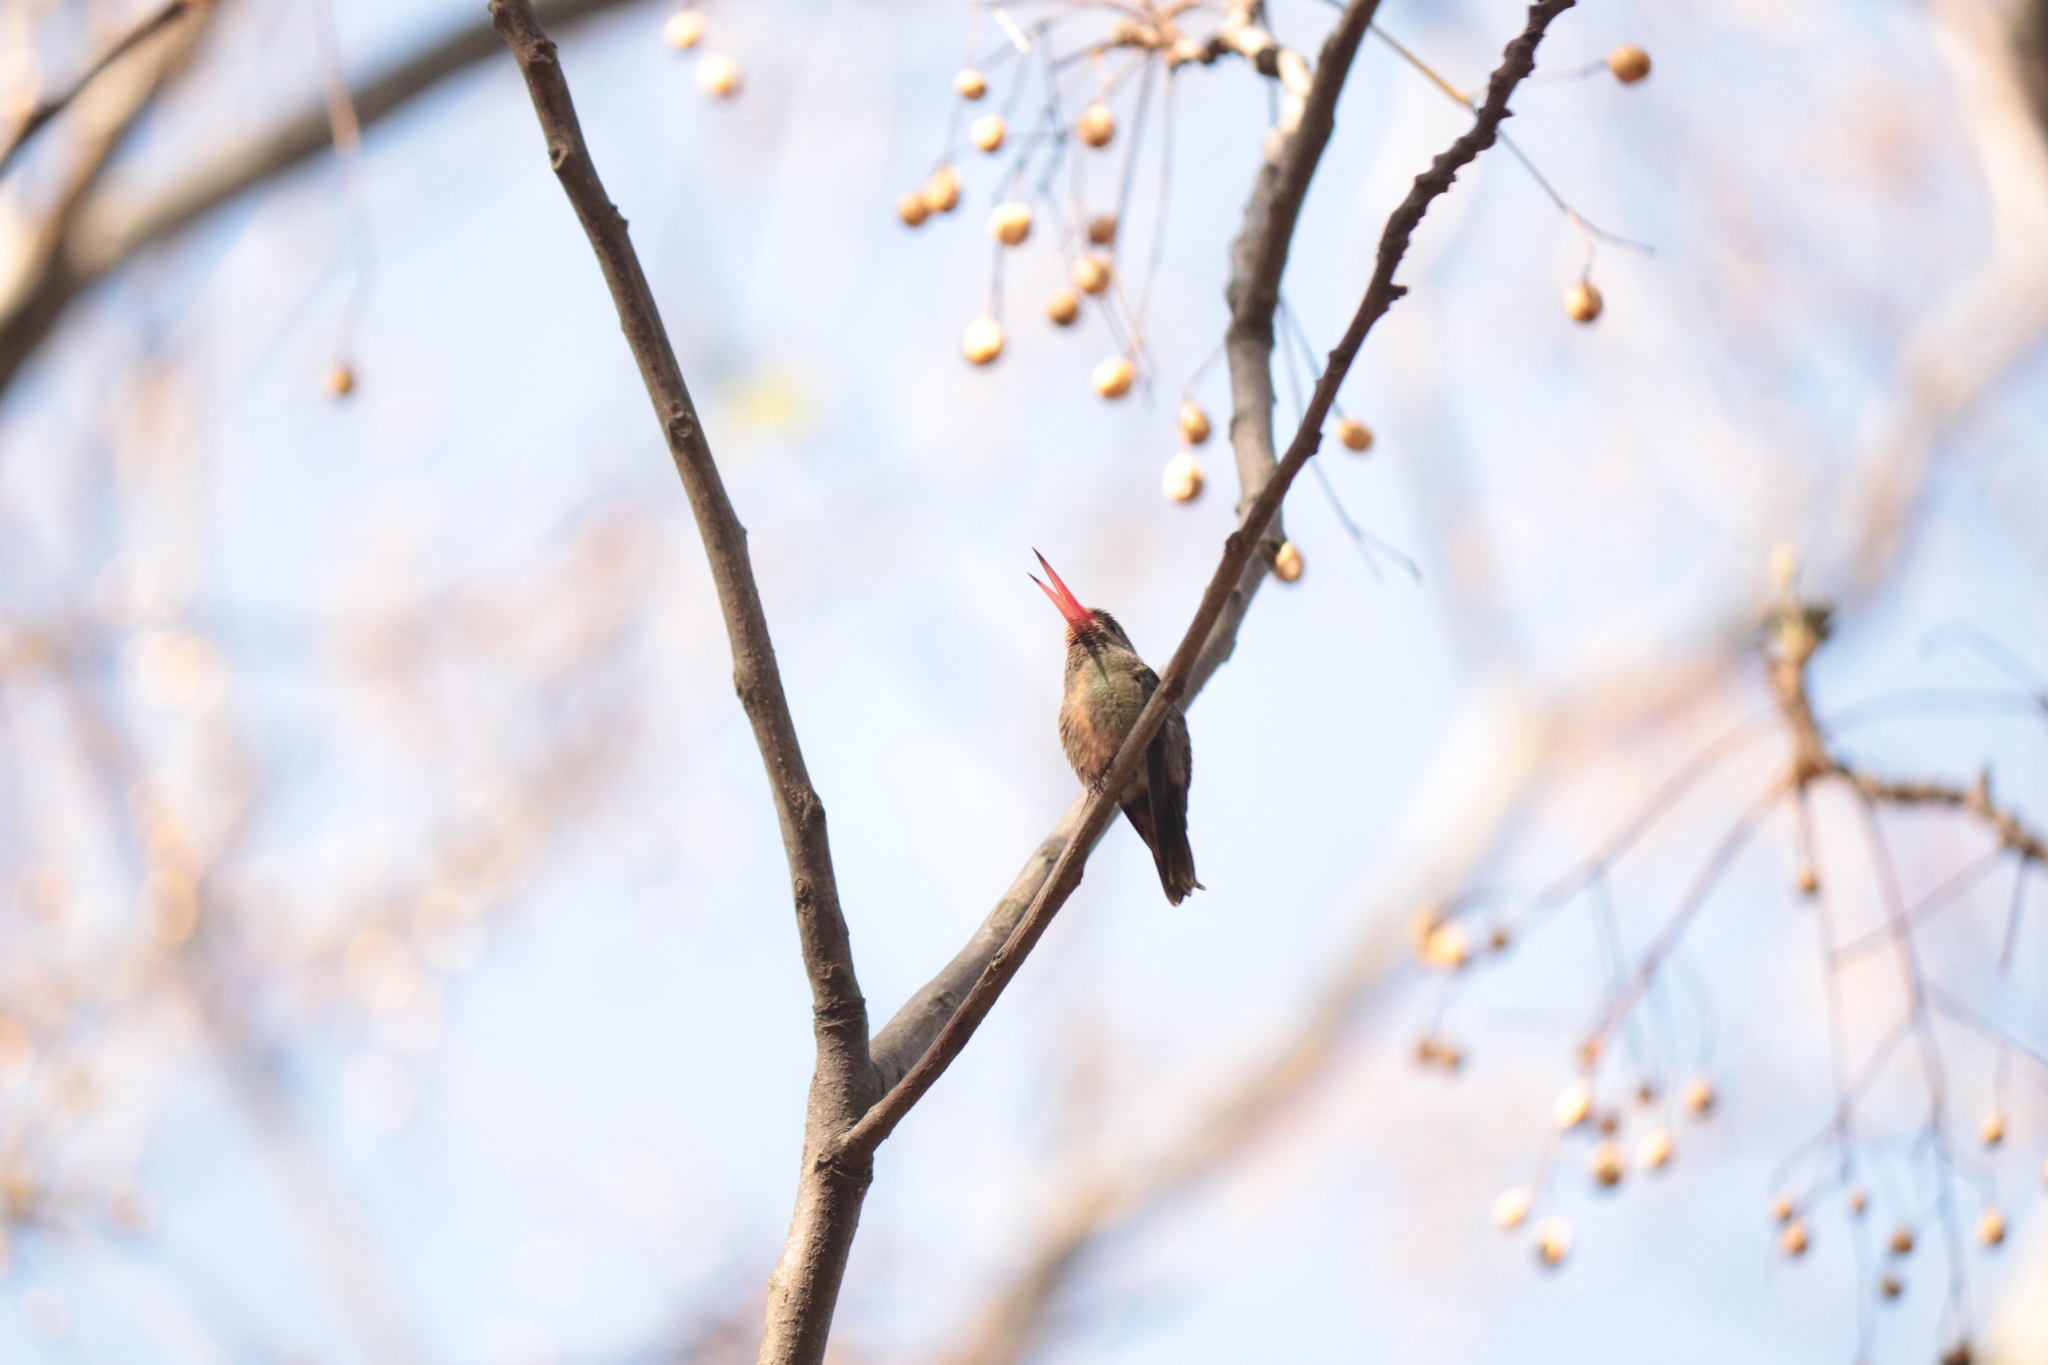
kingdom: Animalia
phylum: Chordata
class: Aves
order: Apodiformes
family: Trochilidae
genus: Hylocharis
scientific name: Hylocharis chrysura
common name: Gilded sapphire
